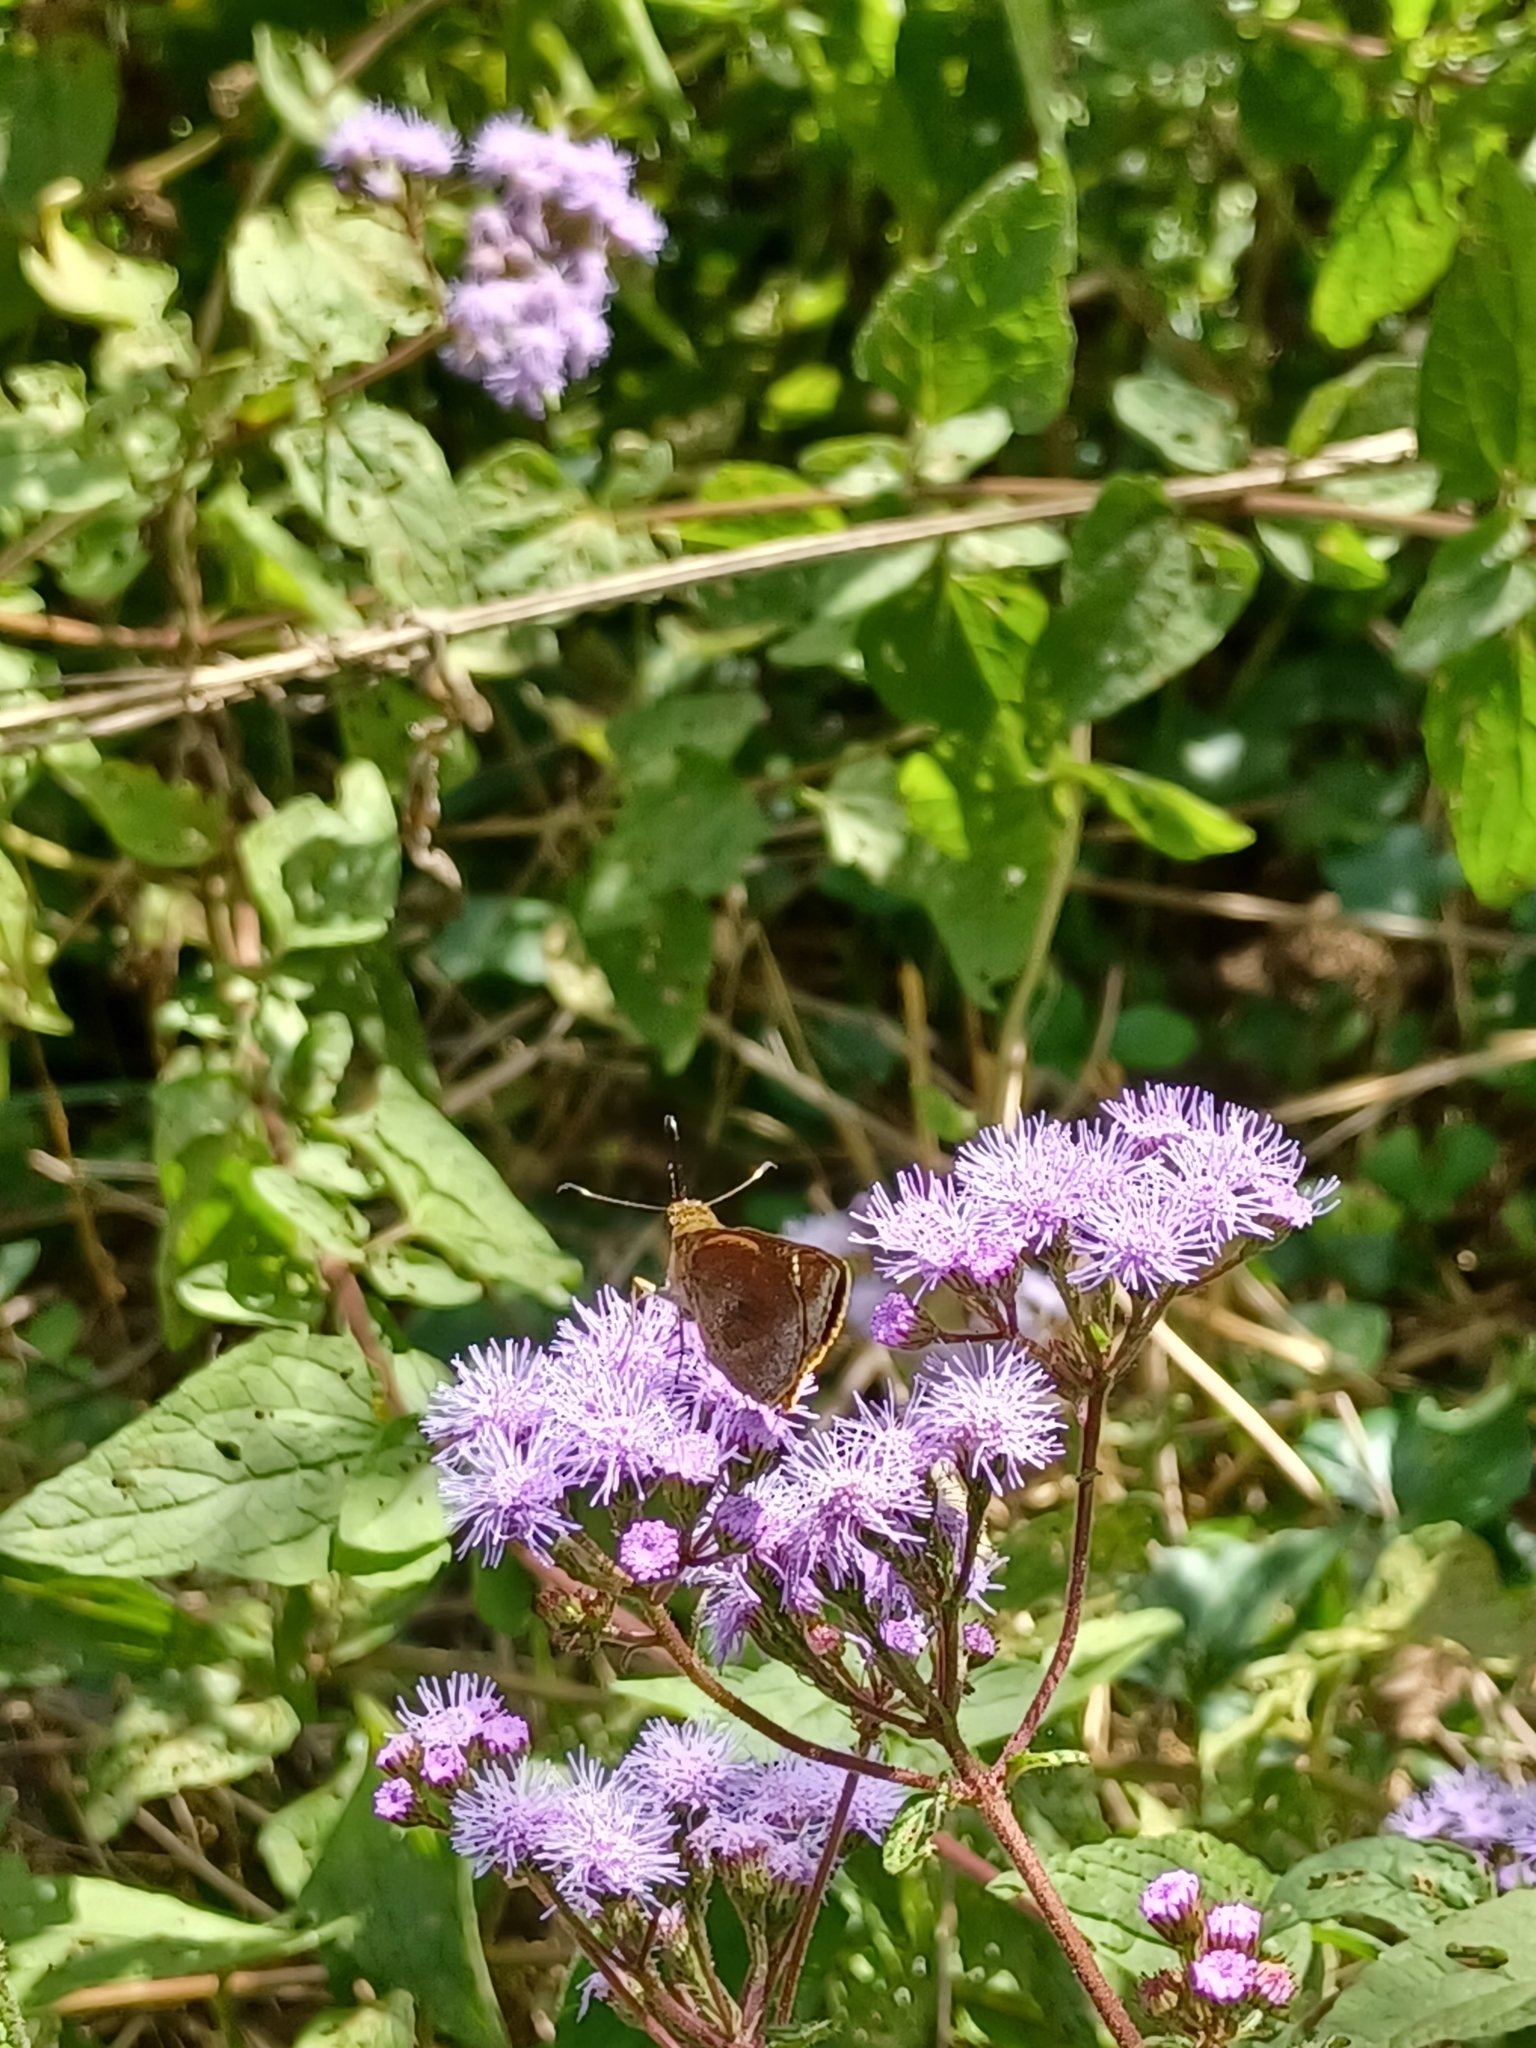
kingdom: Animalia
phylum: Arthropoda
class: Insecta
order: Lepidoptera
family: Hesperiidae
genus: Lerema
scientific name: Lerema accius
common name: Clouded skipper
